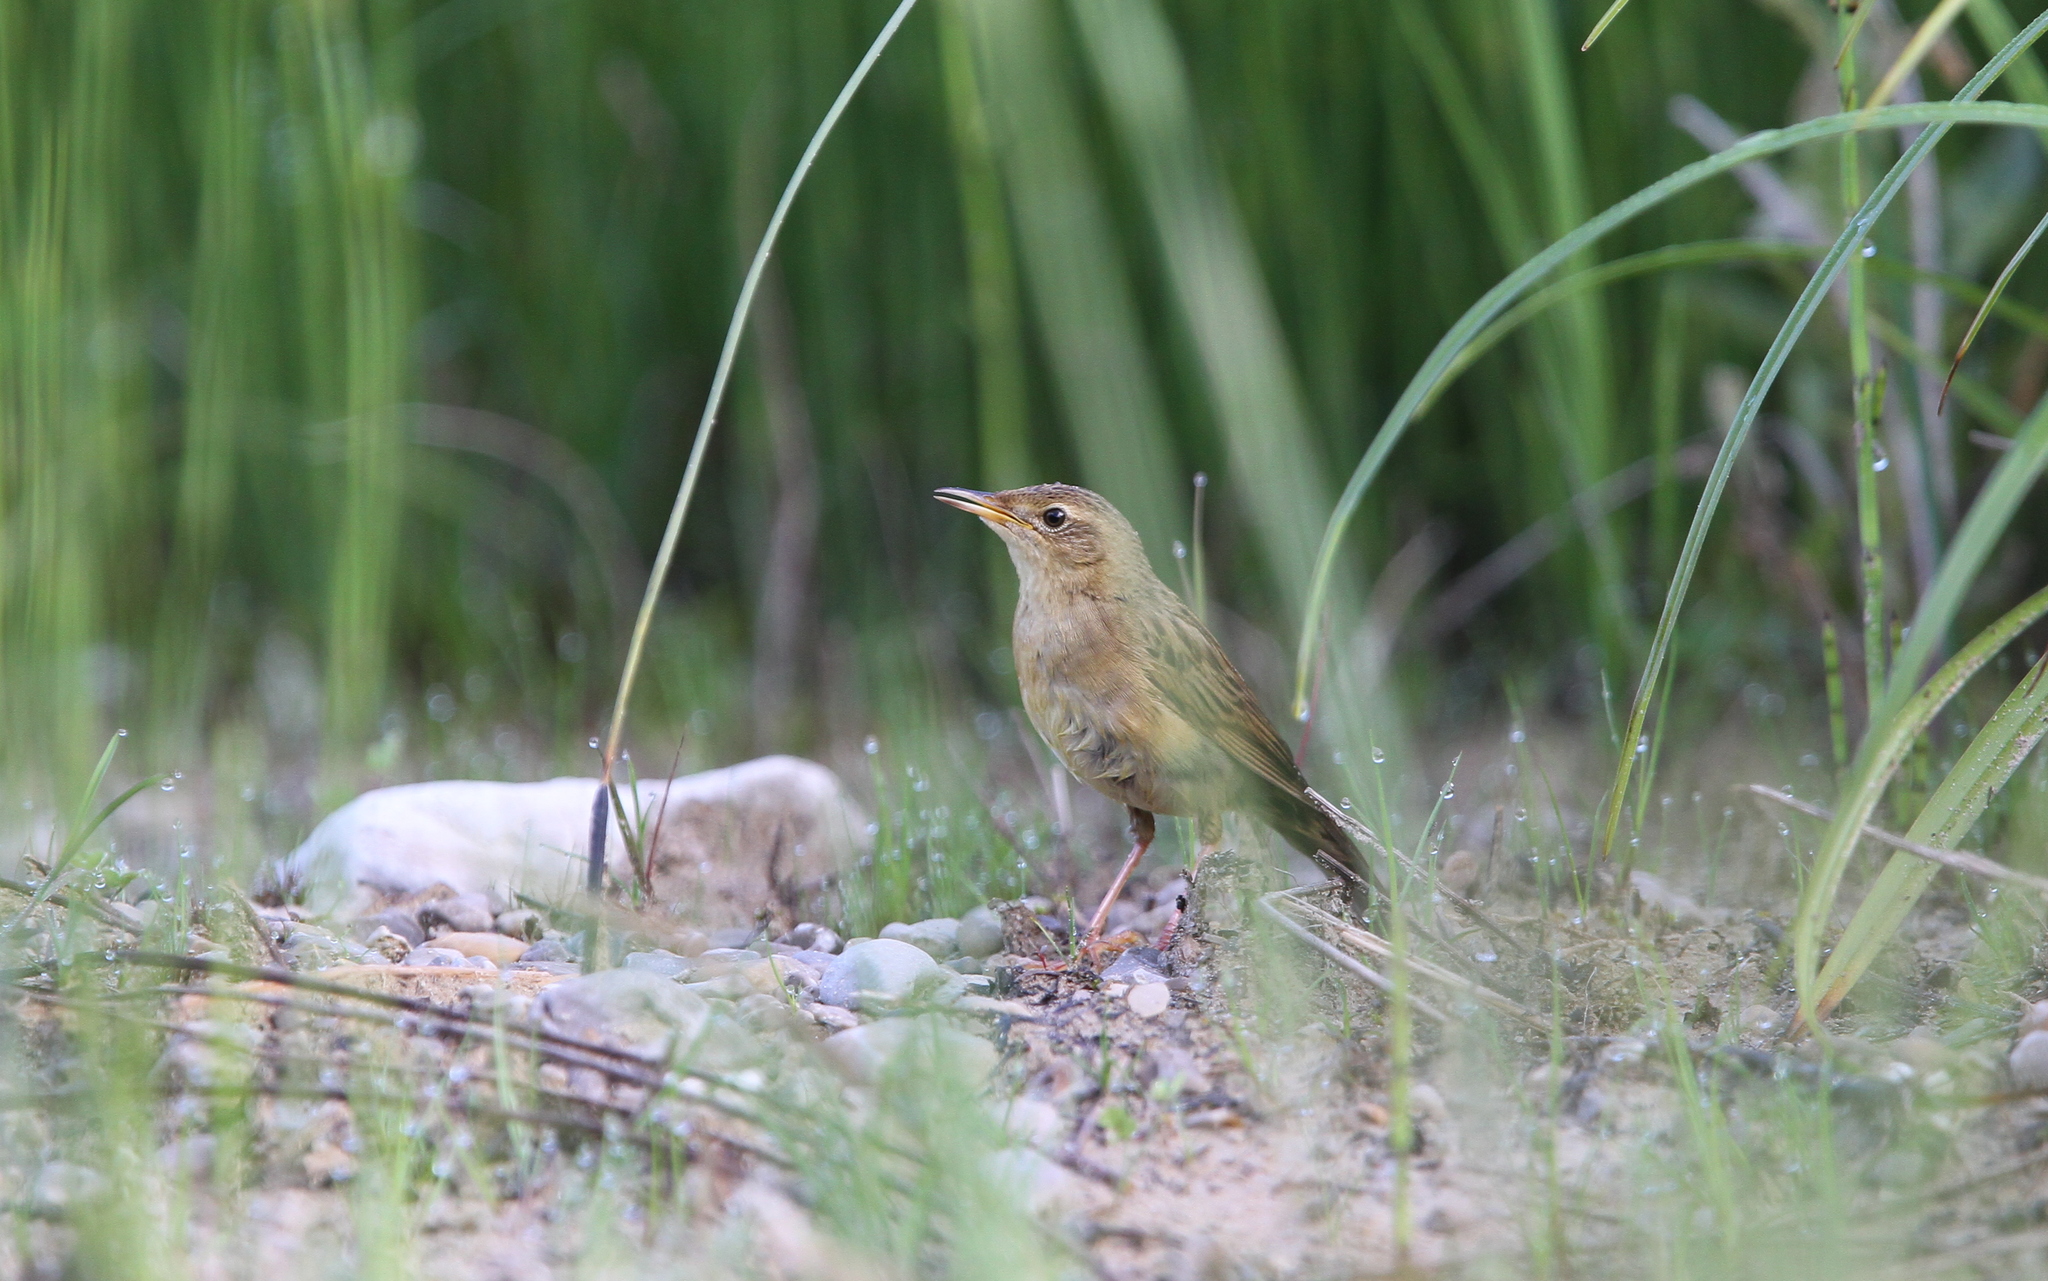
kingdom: Animalia
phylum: Chordata
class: Aves
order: Passeriformes
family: Locustellidae
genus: Locustella
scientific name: Locustella naevia
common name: Common grasshopper warbler
